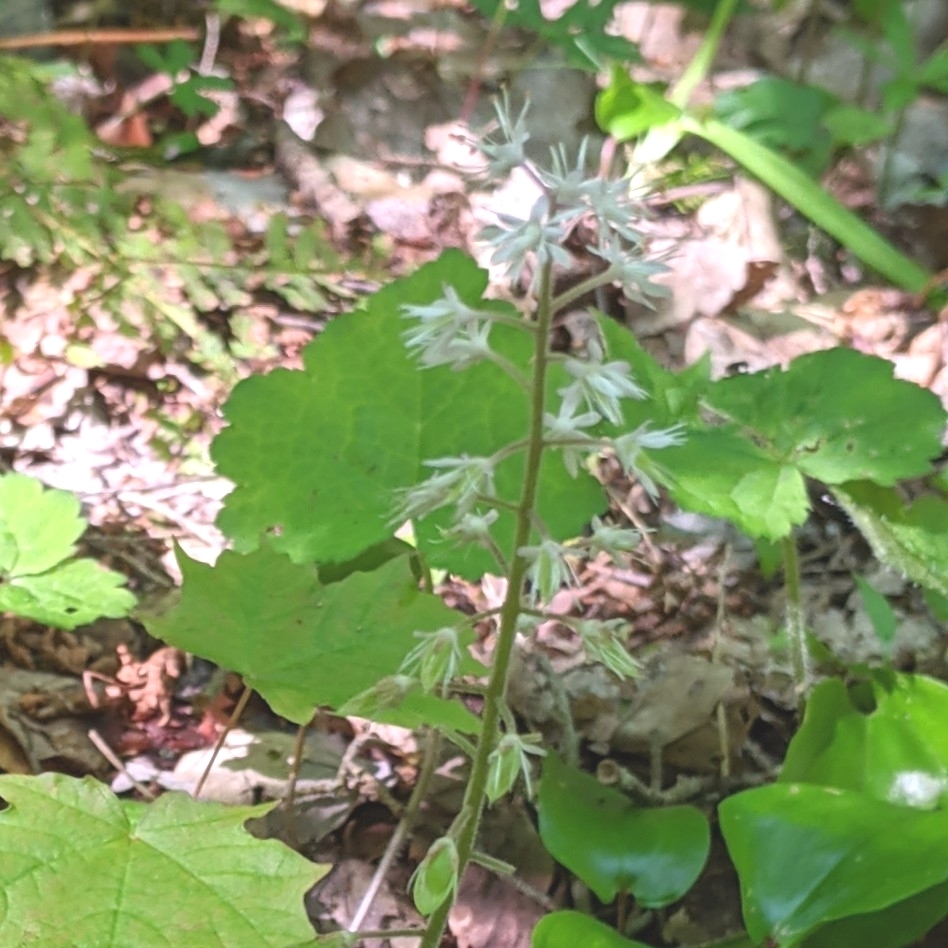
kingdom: Plantae
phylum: Tracheophyta
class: Magnoliopsida
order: Saxifragales
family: Saxifragaceae
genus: Tiarella
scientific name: Tiarella stolonifera
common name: Stoloniferous foamflower
